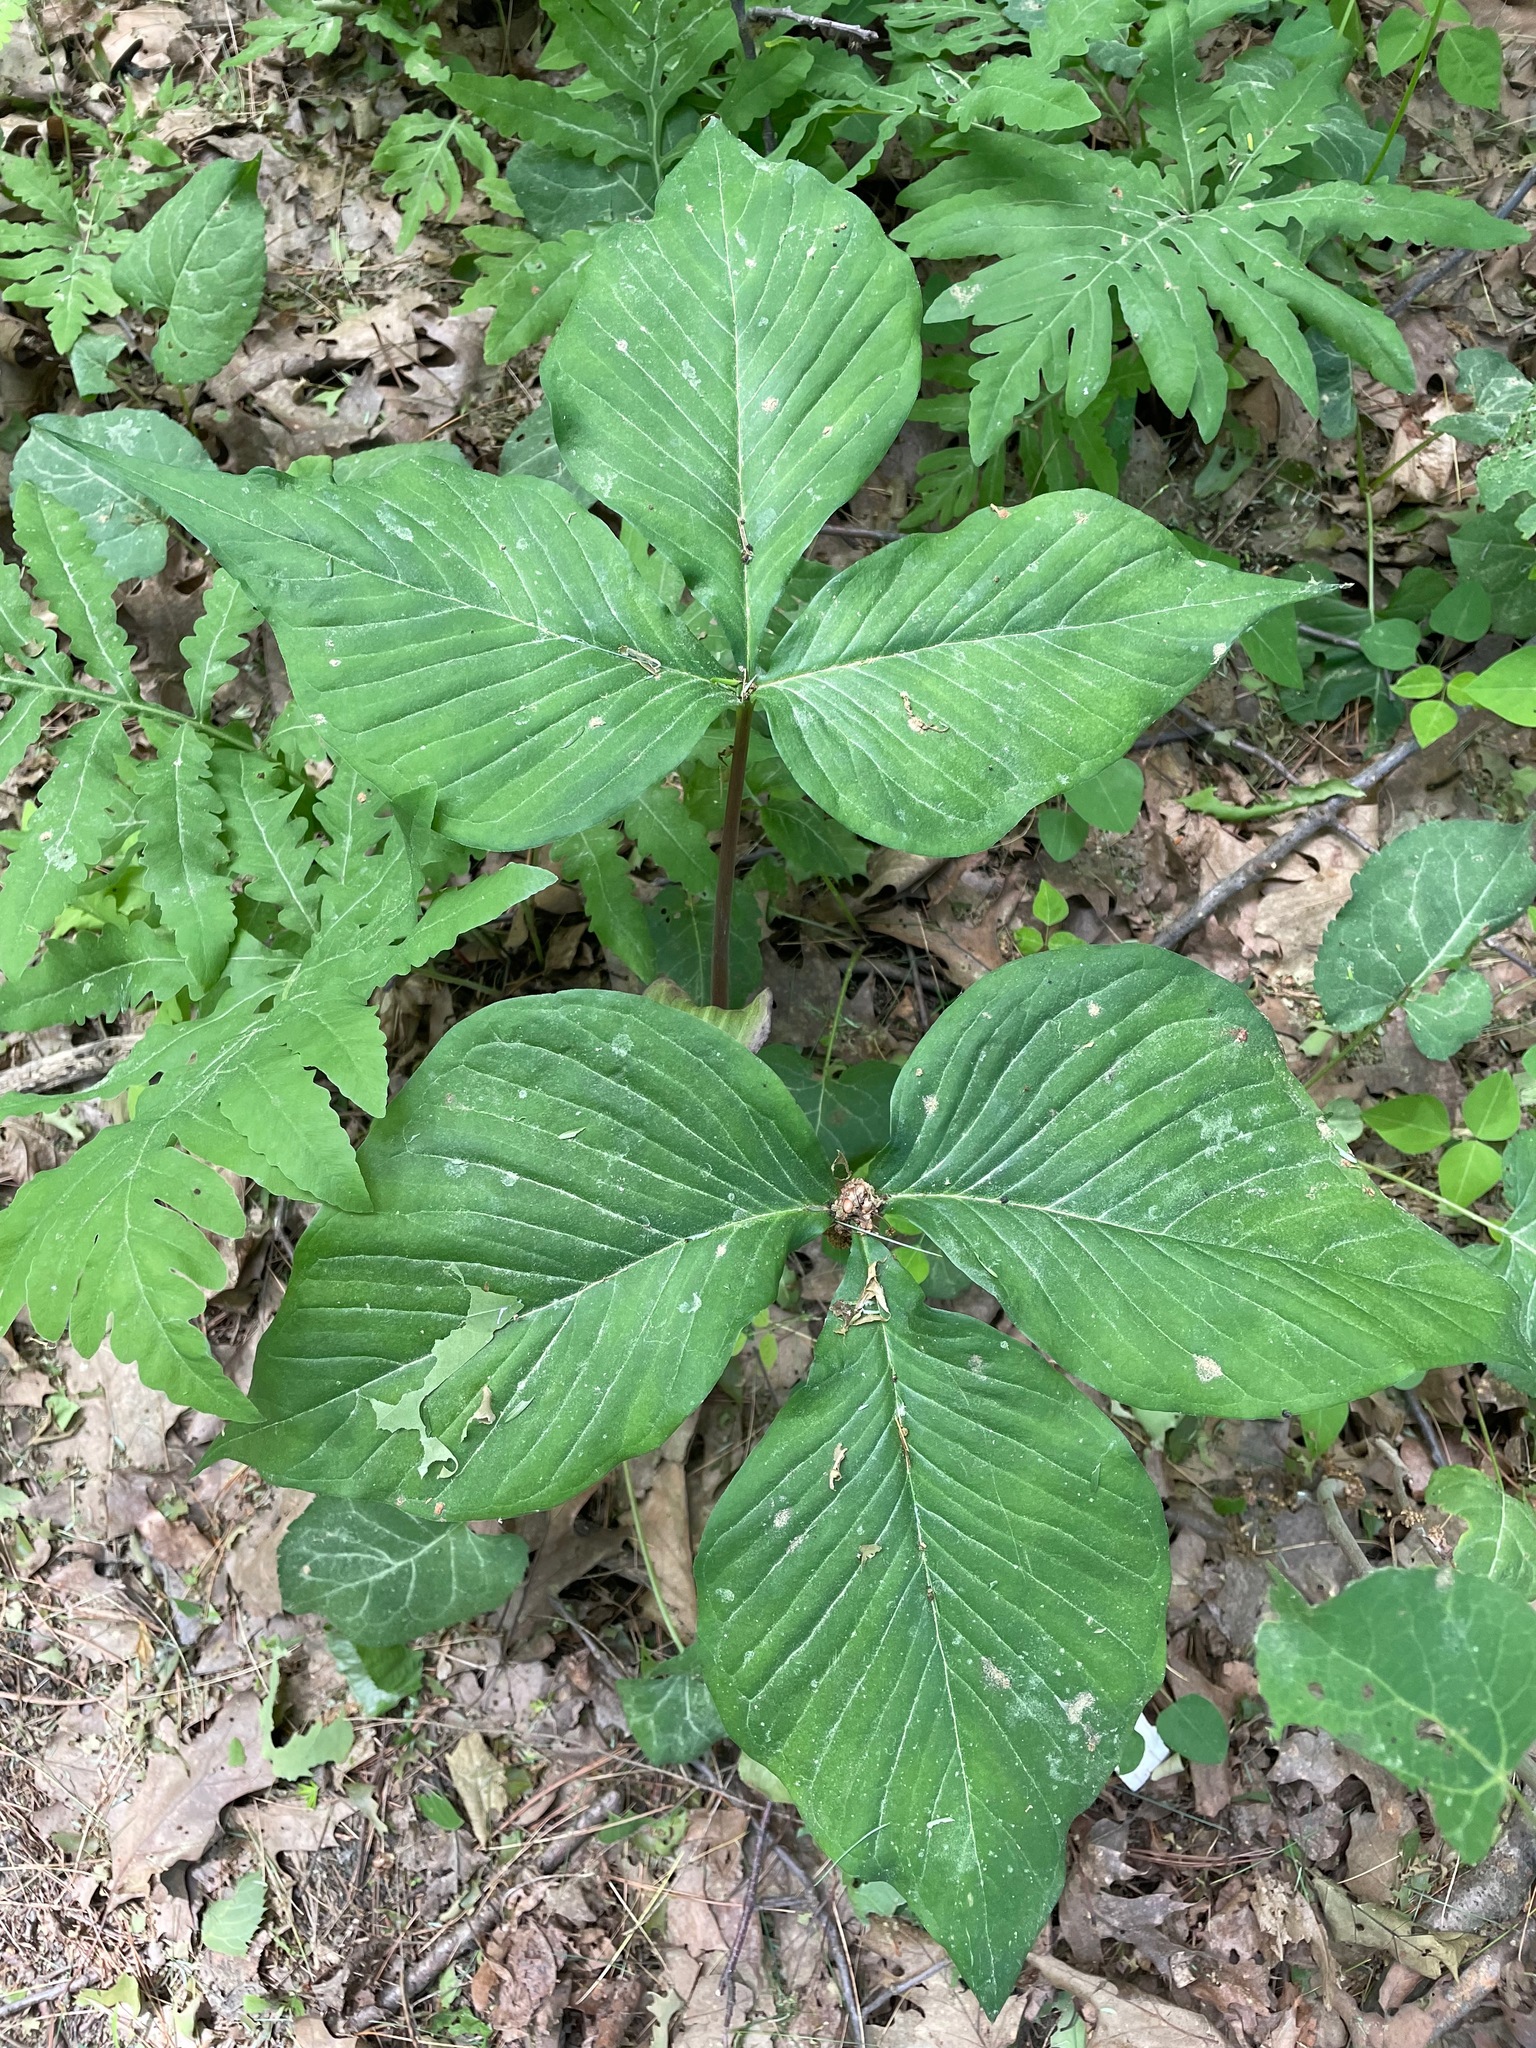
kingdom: Plantae
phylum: Tracheophyta
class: Liliopsida
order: Alismatales
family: Araceae
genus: Arisaema
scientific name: Arisaema triphyllum
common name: Jack-in-the-pulpit
